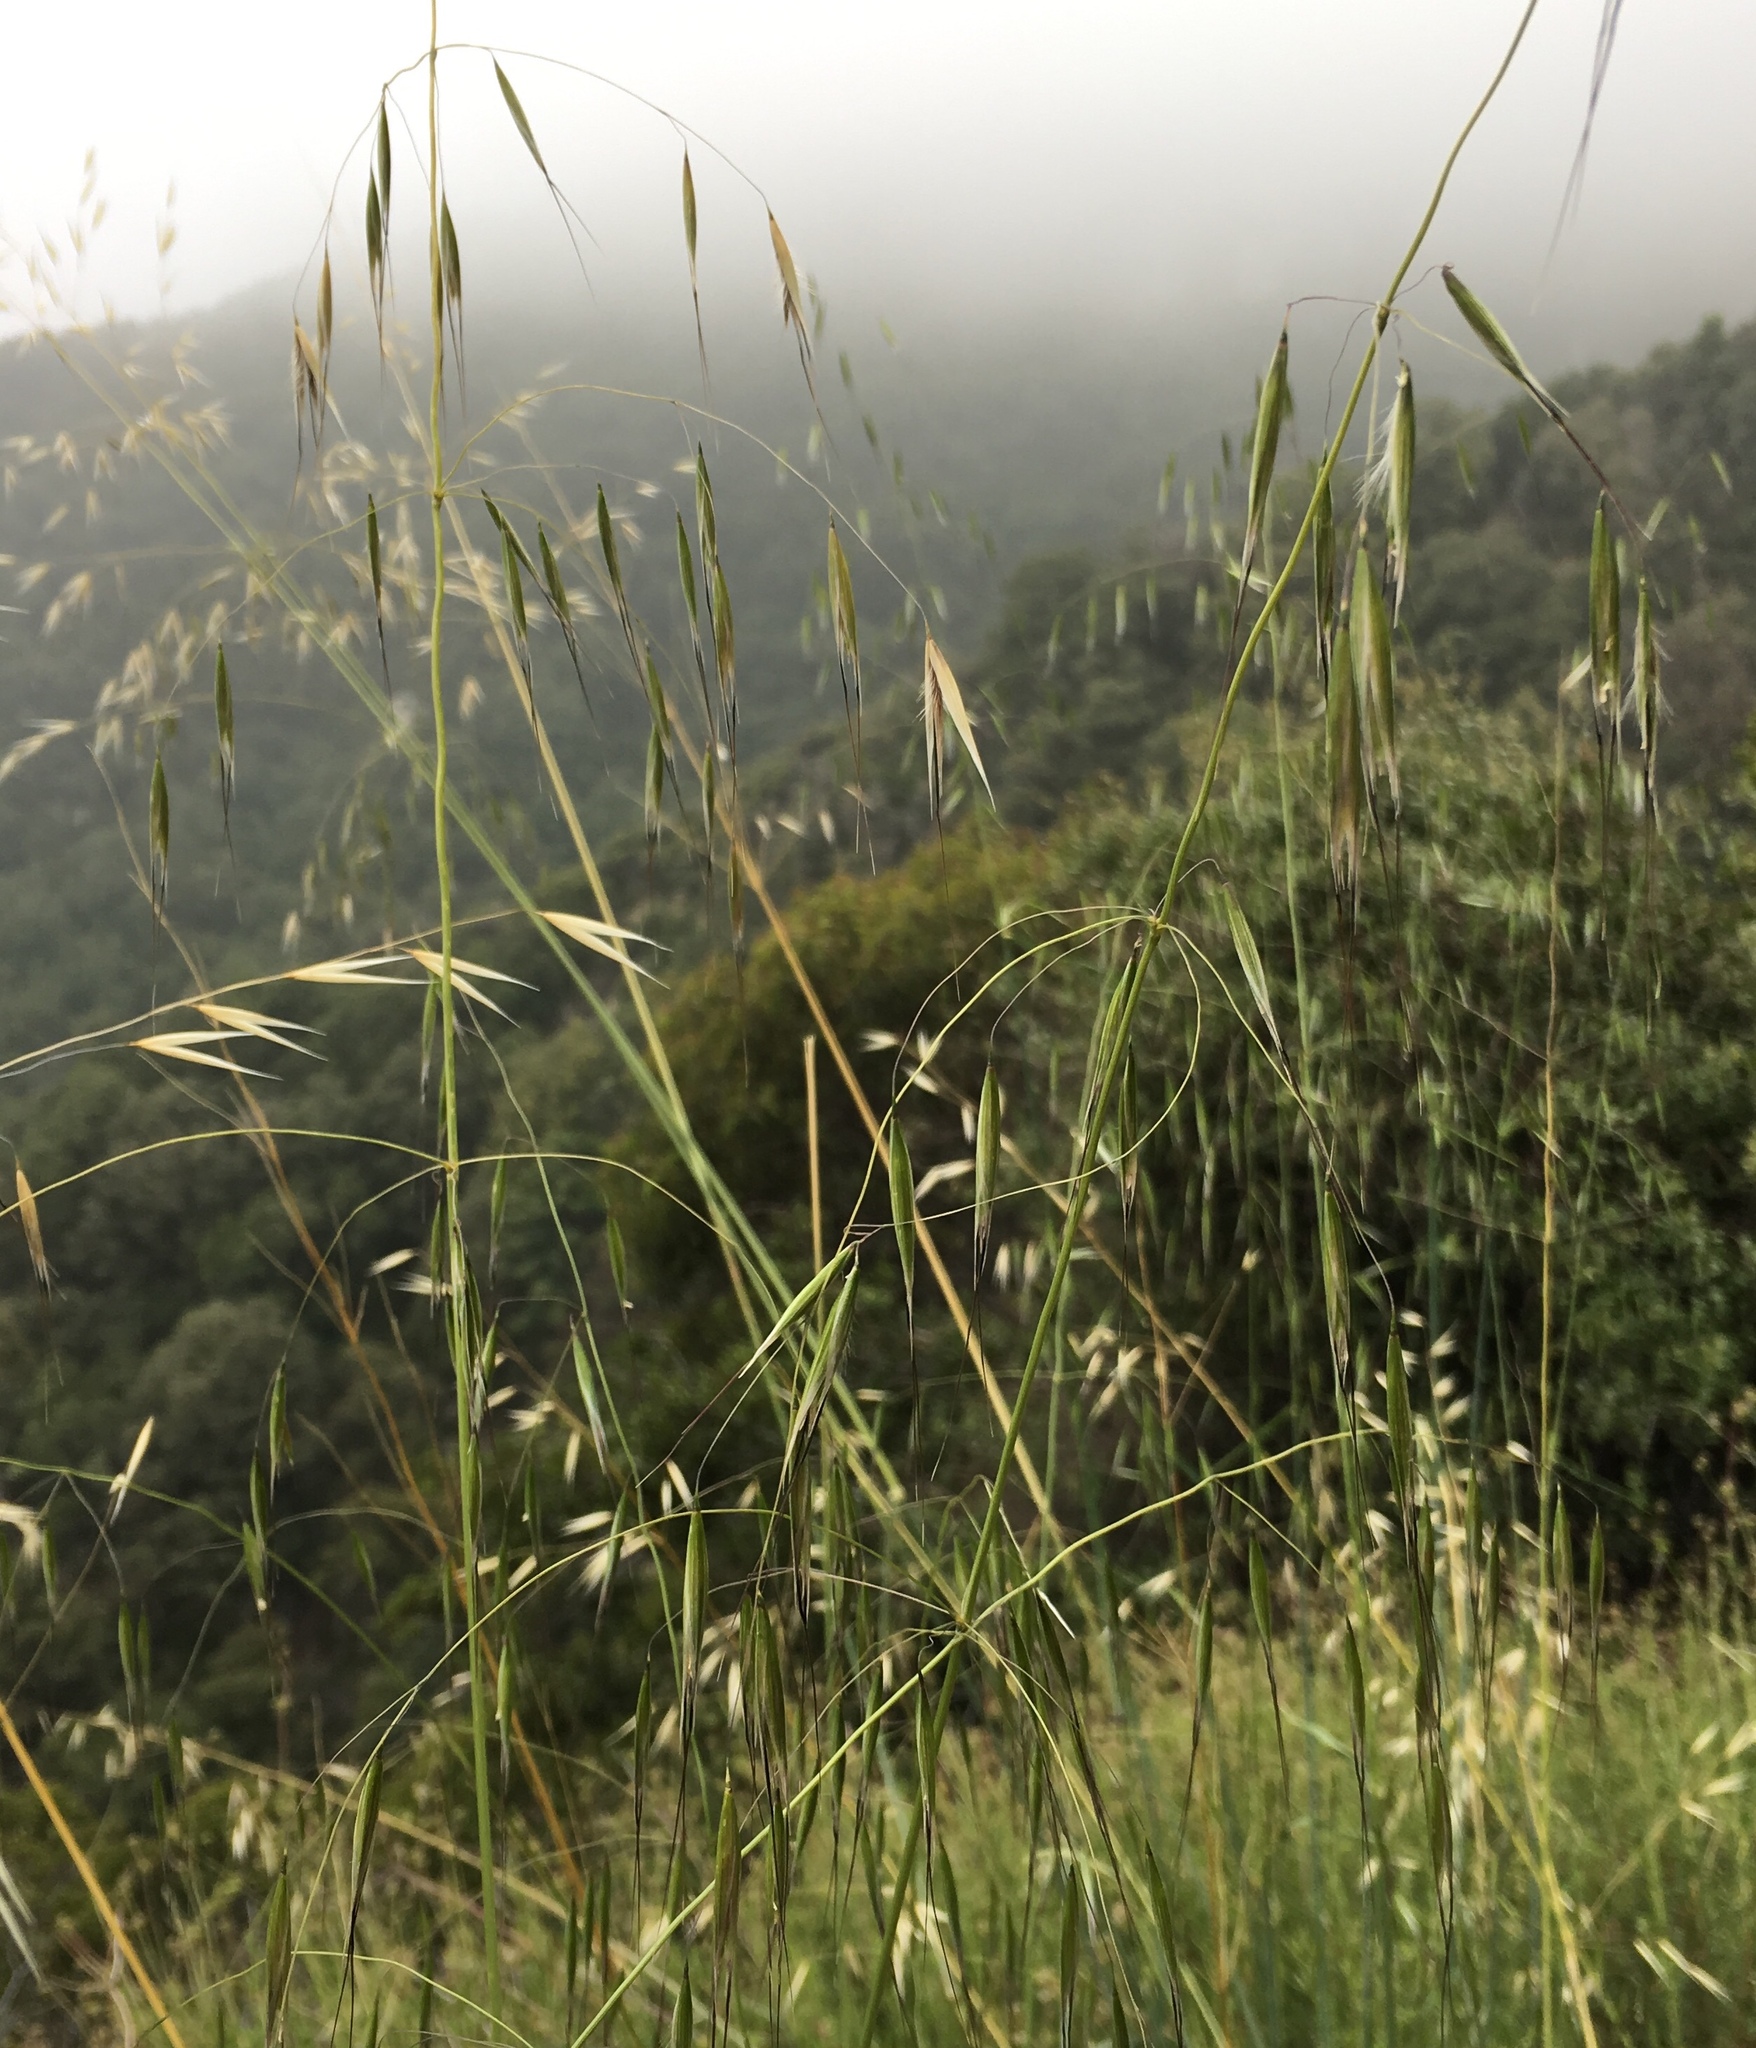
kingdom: Plantae
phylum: Tracheophyta
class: Liliopsida
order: Poales
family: Poaceae
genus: Avena
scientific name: Avena barbata
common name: Slender oat
